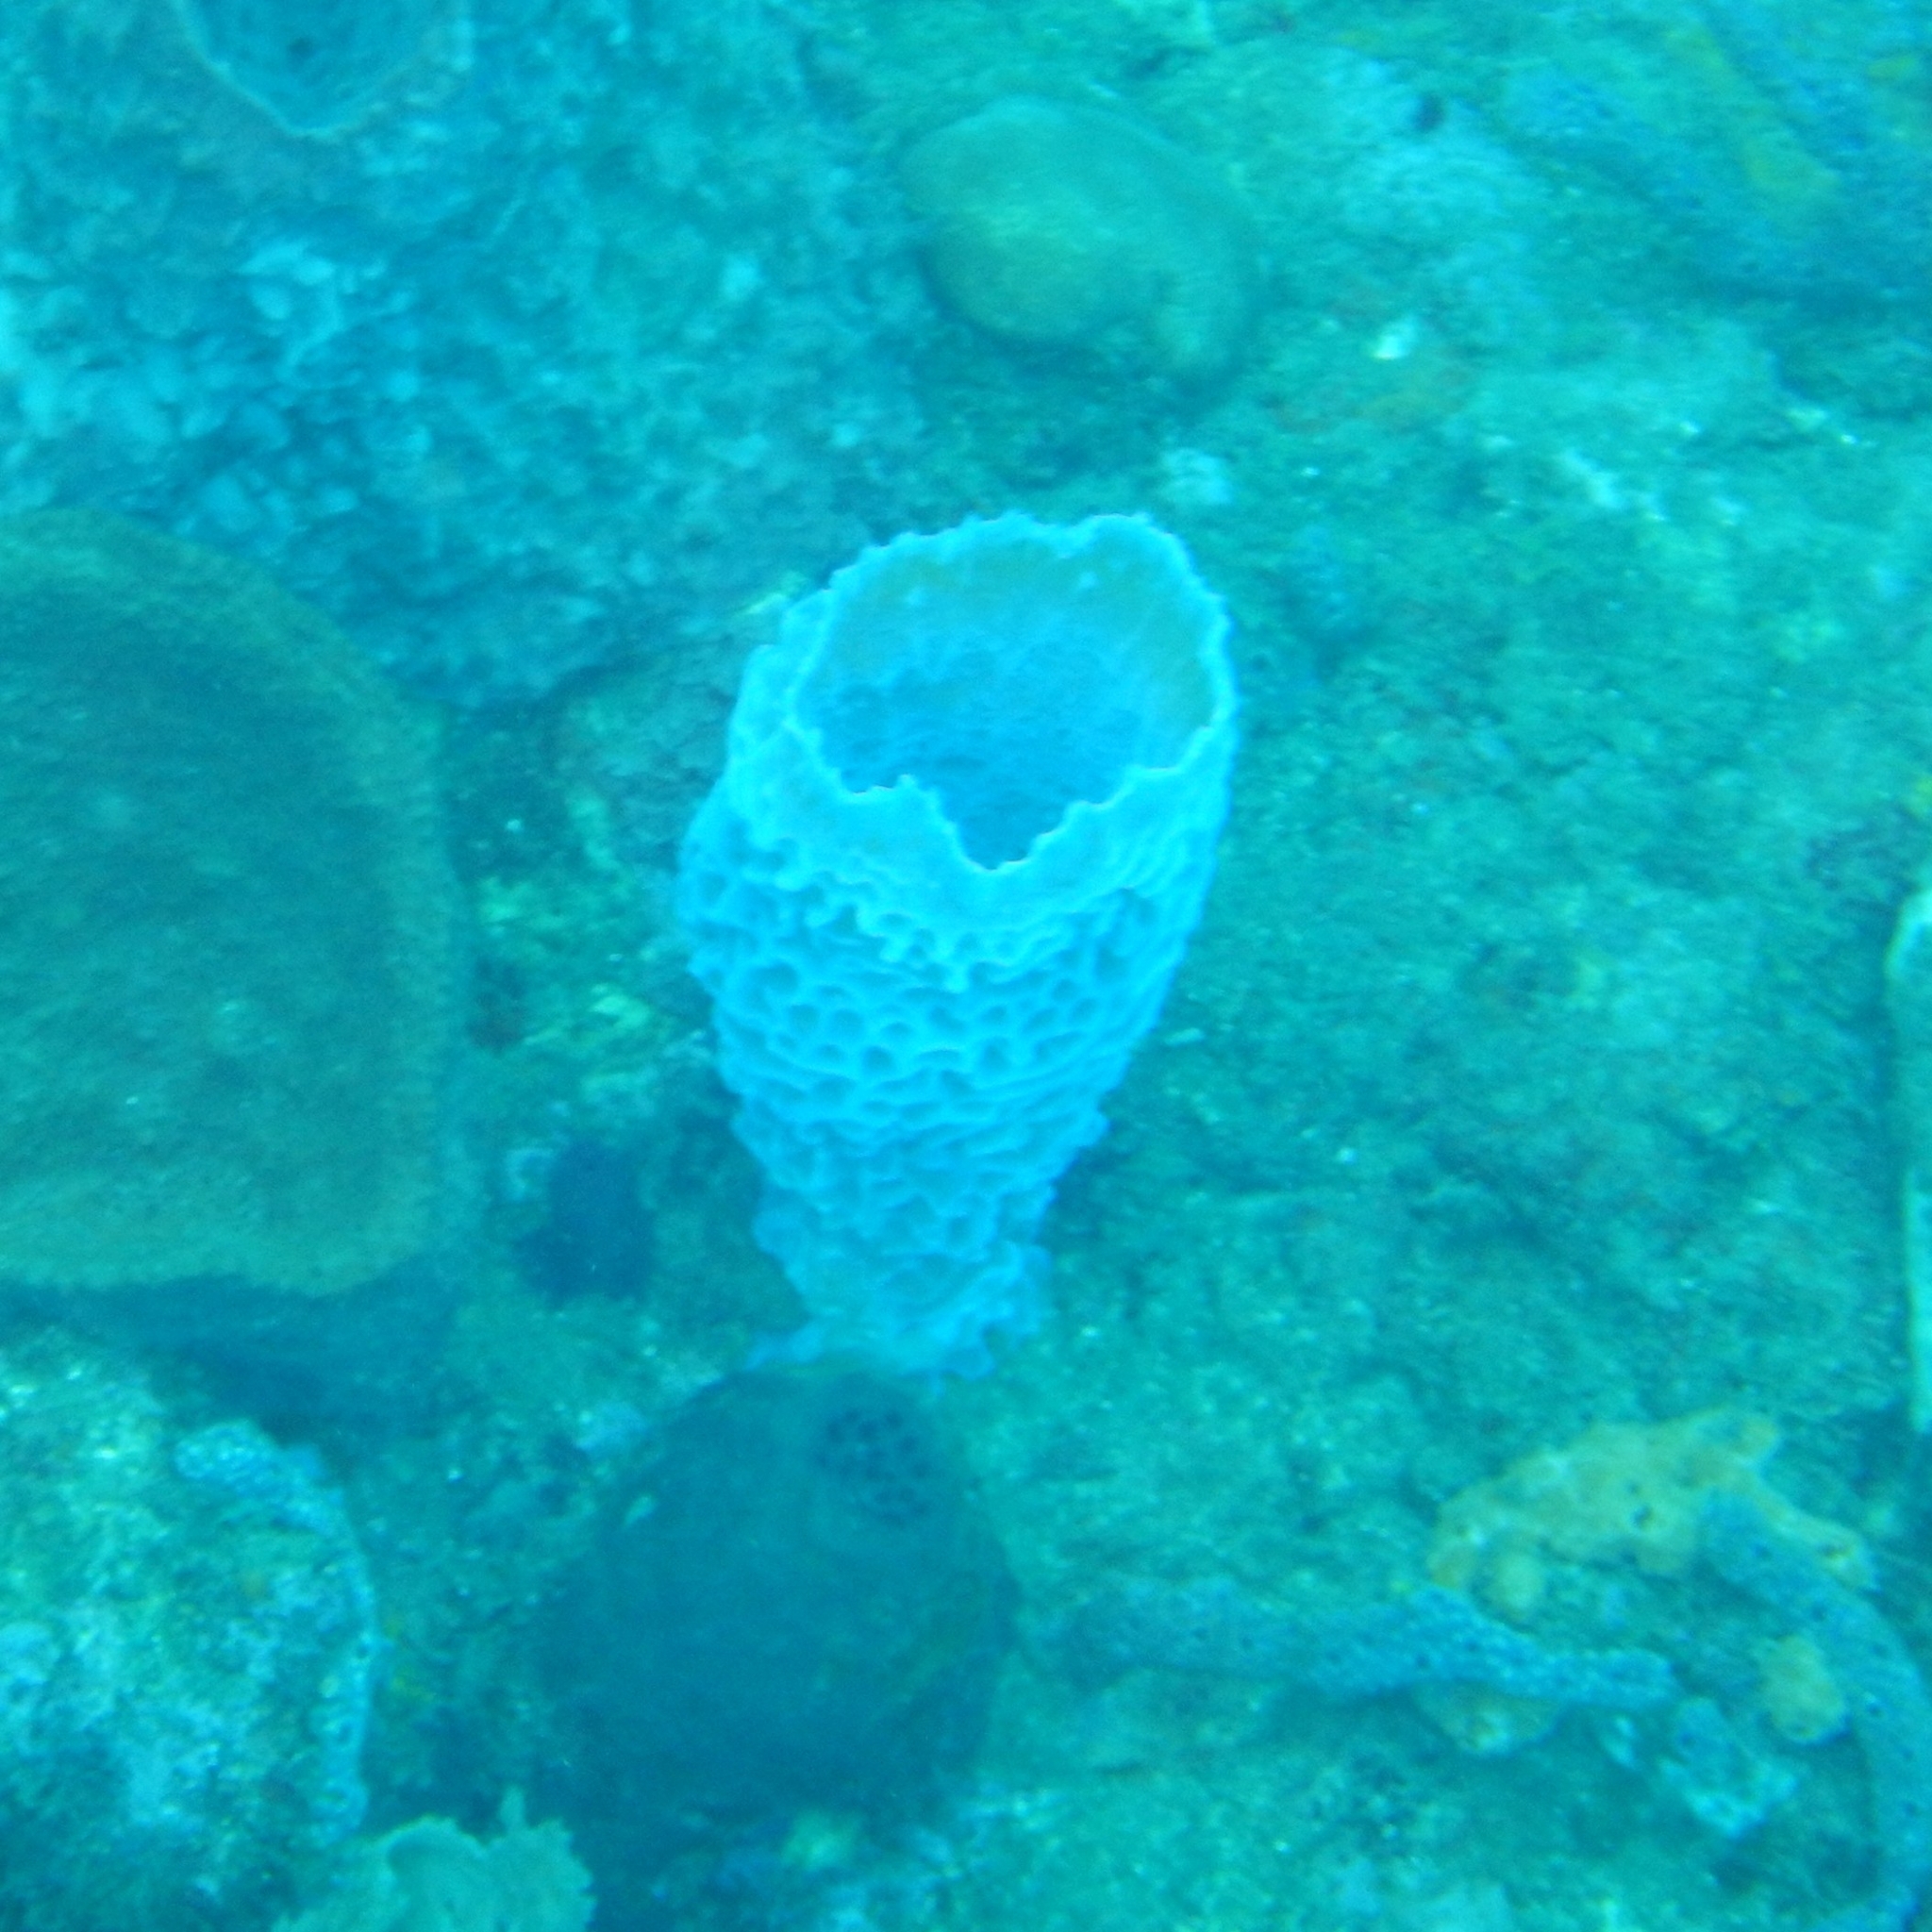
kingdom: Animalia
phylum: Porifera
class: Demospongiae
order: Haplosclerida
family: Callyspongiidae
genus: Callyspongia
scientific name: Callyspongia plicifera
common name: Azure vase sponge
